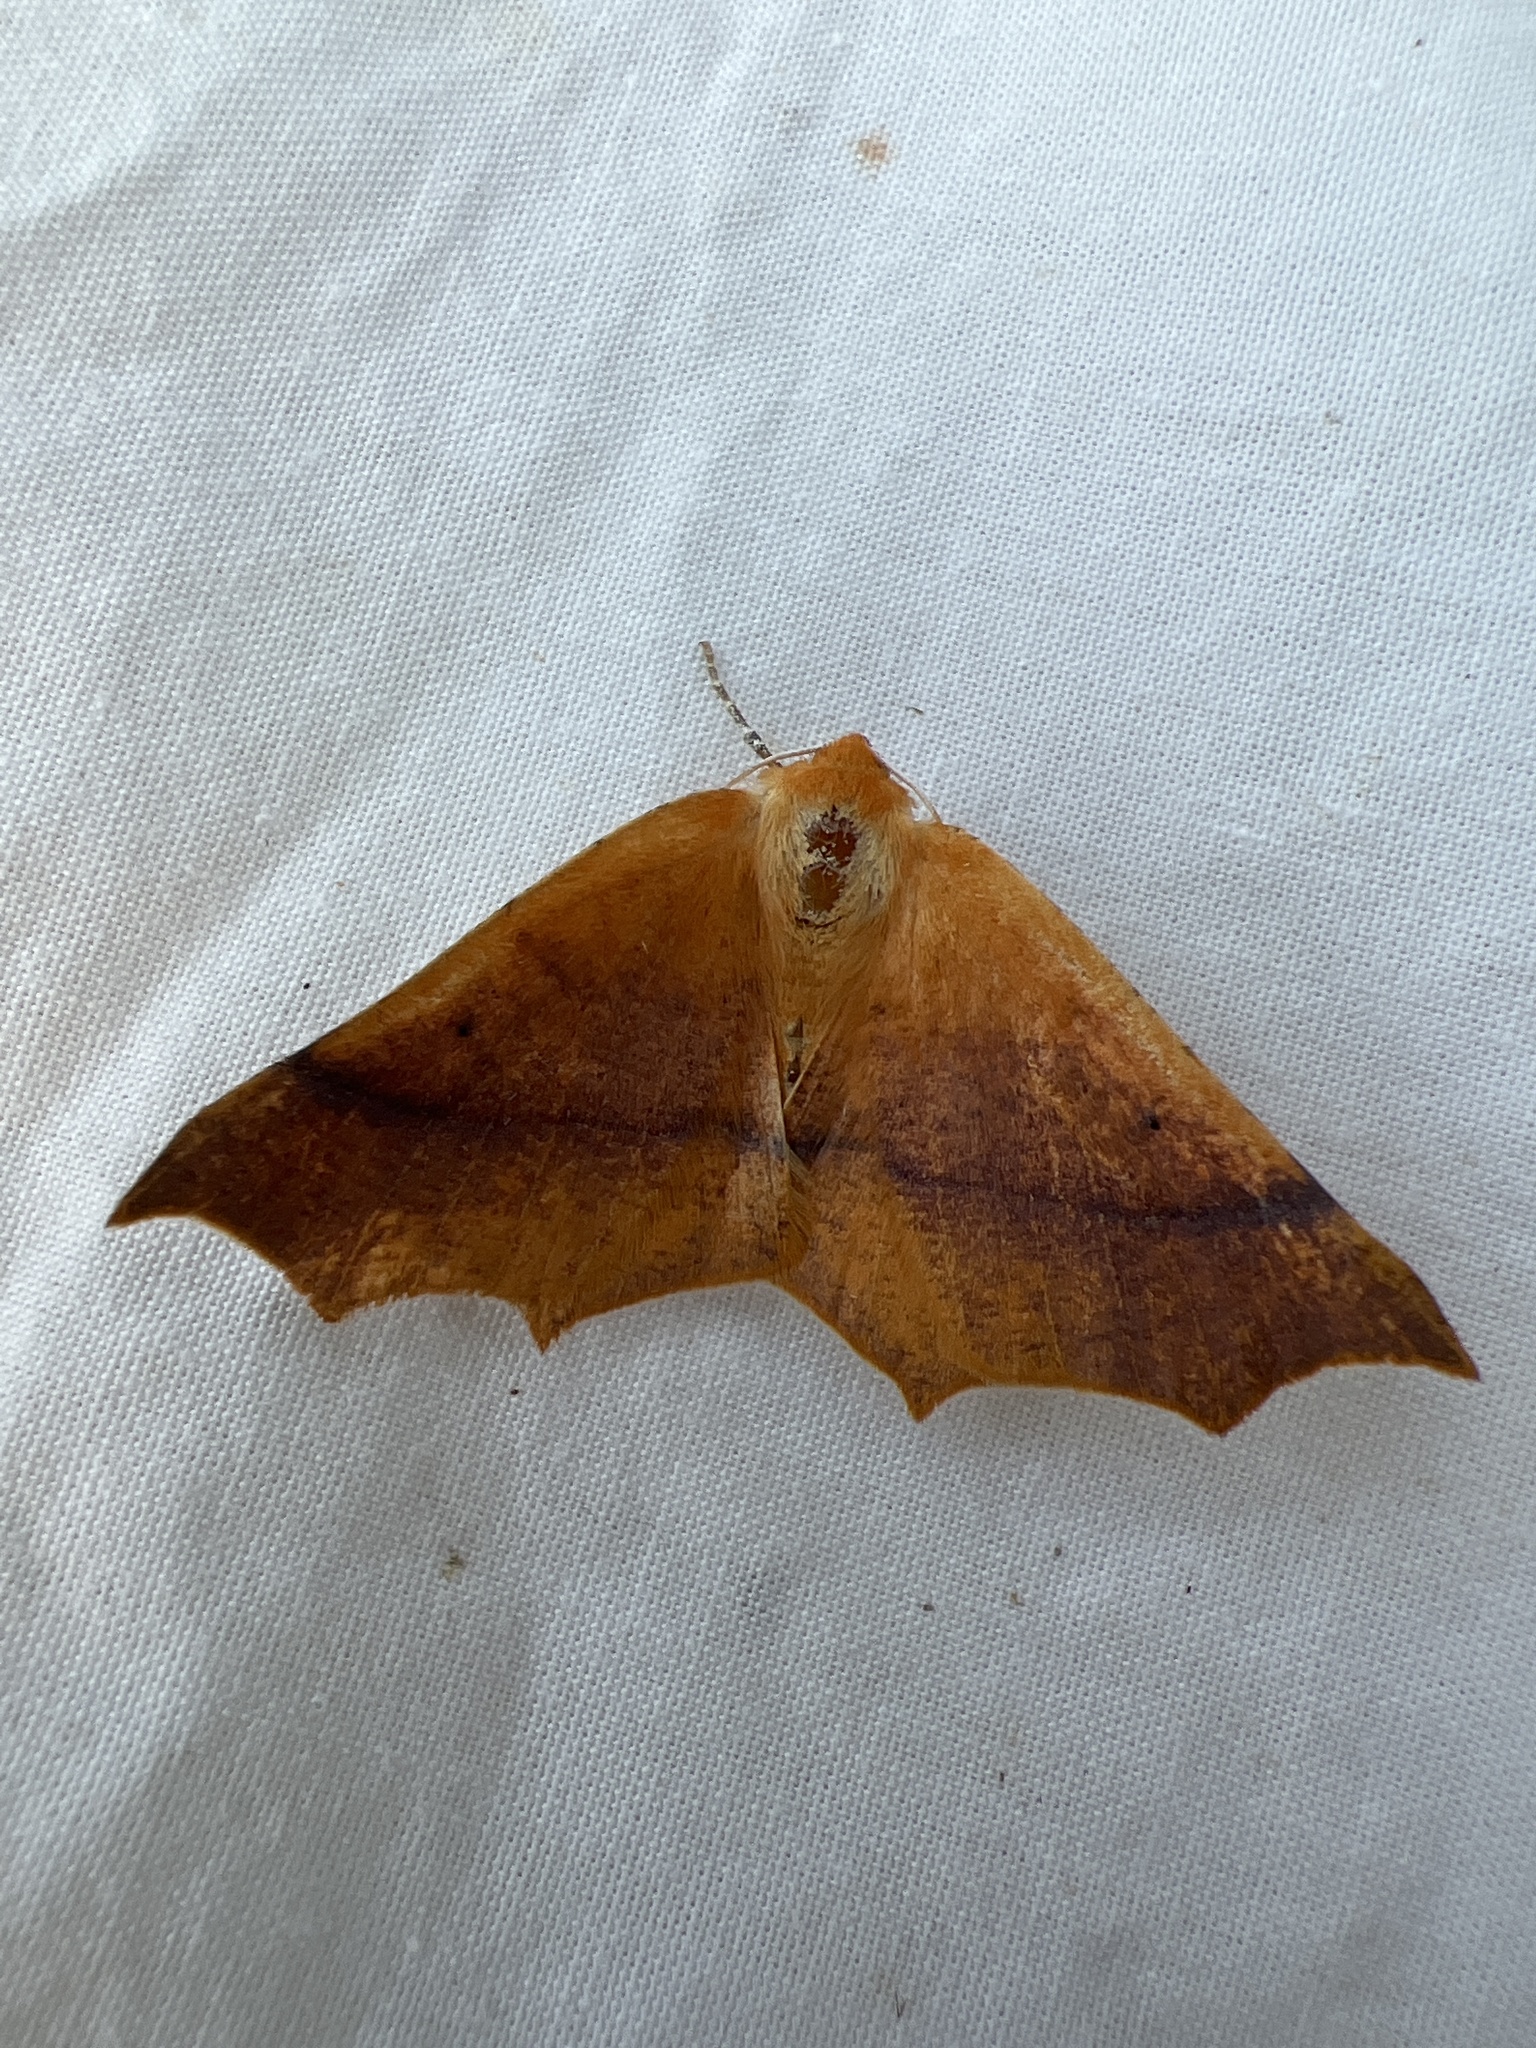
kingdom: Animalia
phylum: Arthropoda
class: Insecta
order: Lepidoptera
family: Geometridae
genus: Tetracis
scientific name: Tetracis cervinaria
